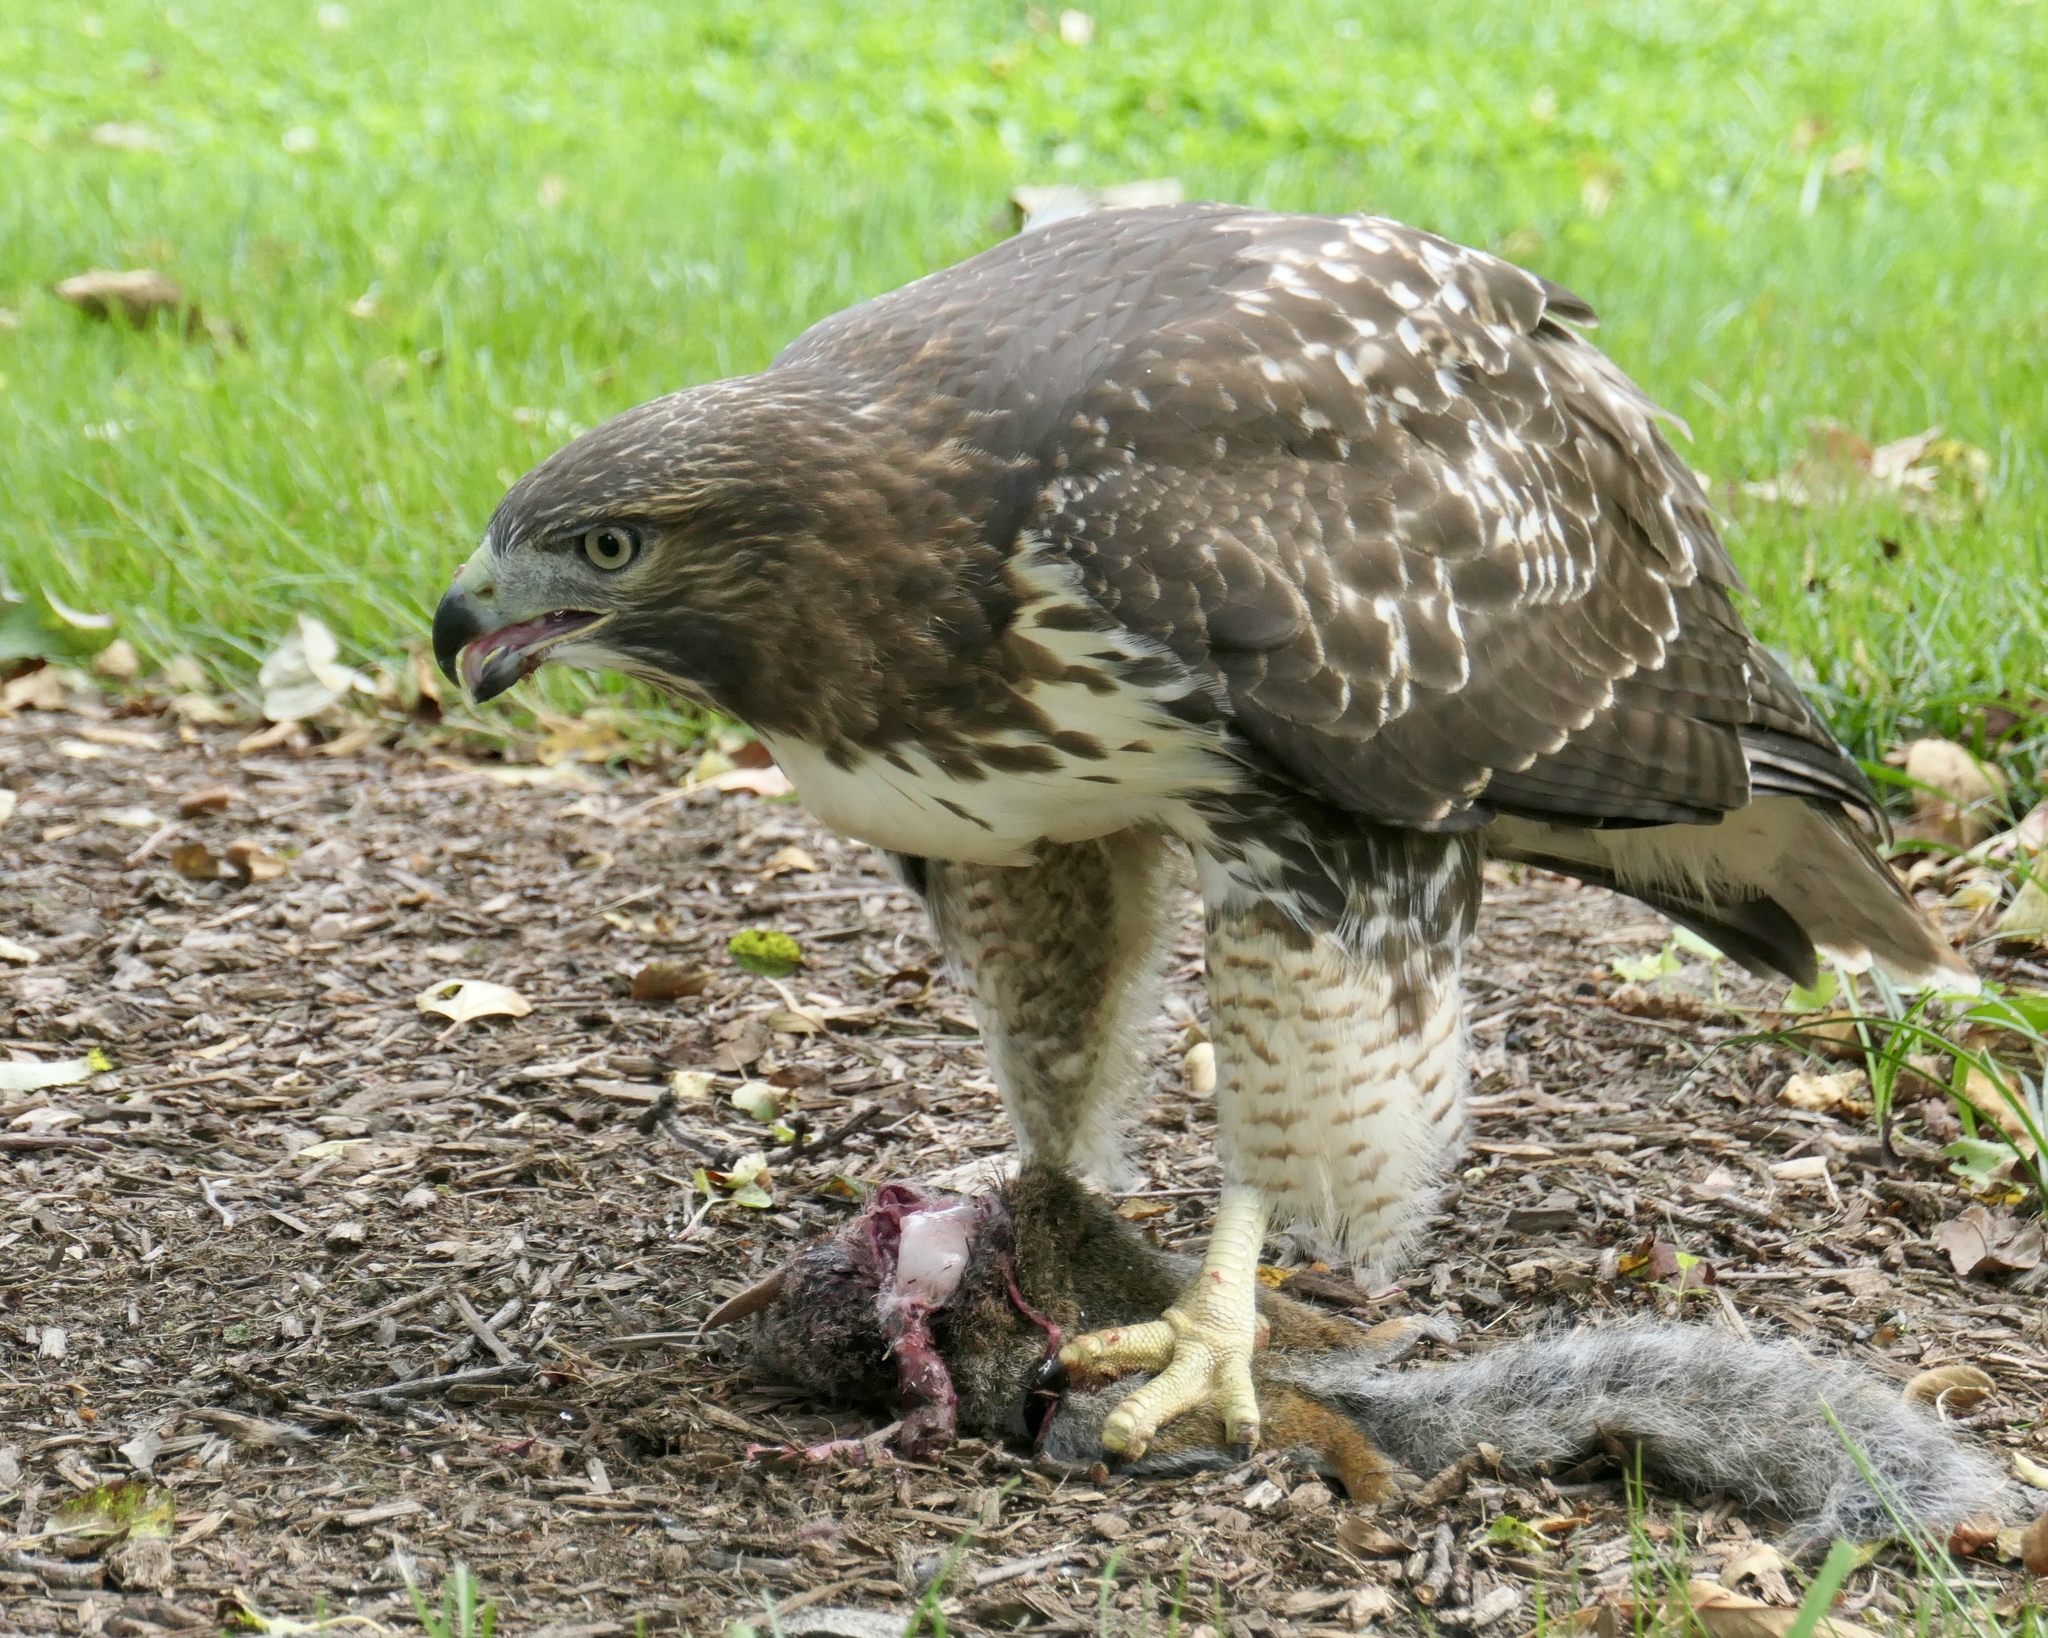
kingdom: Animalia
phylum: Chordata
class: Aves
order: Accipitriformes
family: Accipitridae
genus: Buteo
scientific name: Buteo jamaicensis
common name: Red-tailed hawk
